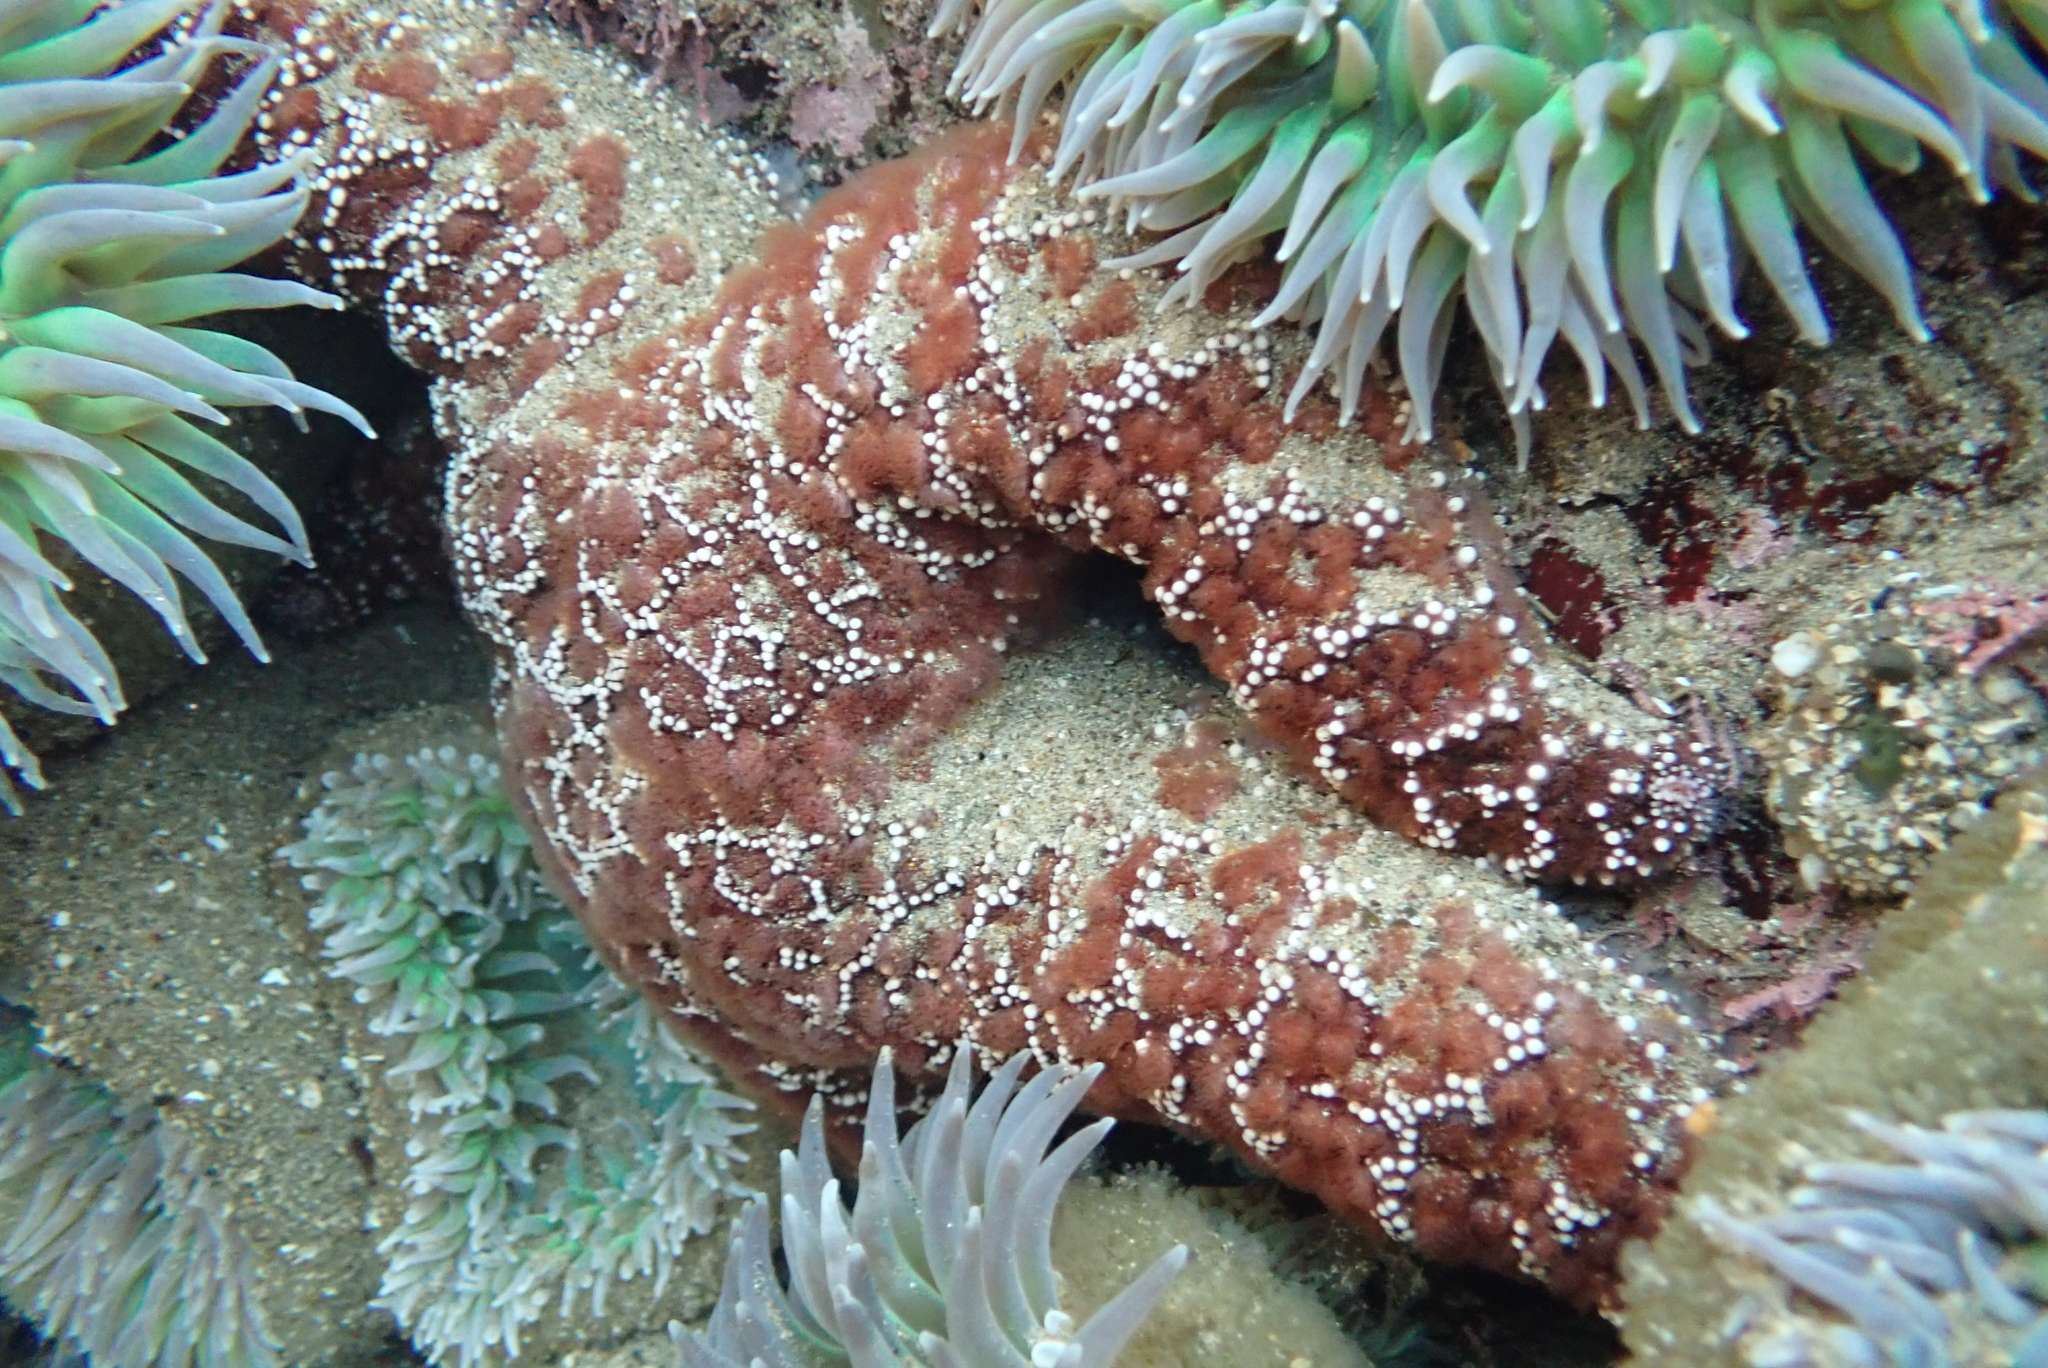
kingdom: Animalia
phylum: Cnidaria
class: Anthozoa
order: Actiniaria
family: Actiniidae
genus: Anthopleura
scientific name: Anthopleura xanthogrammica
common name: Giant green anemone
